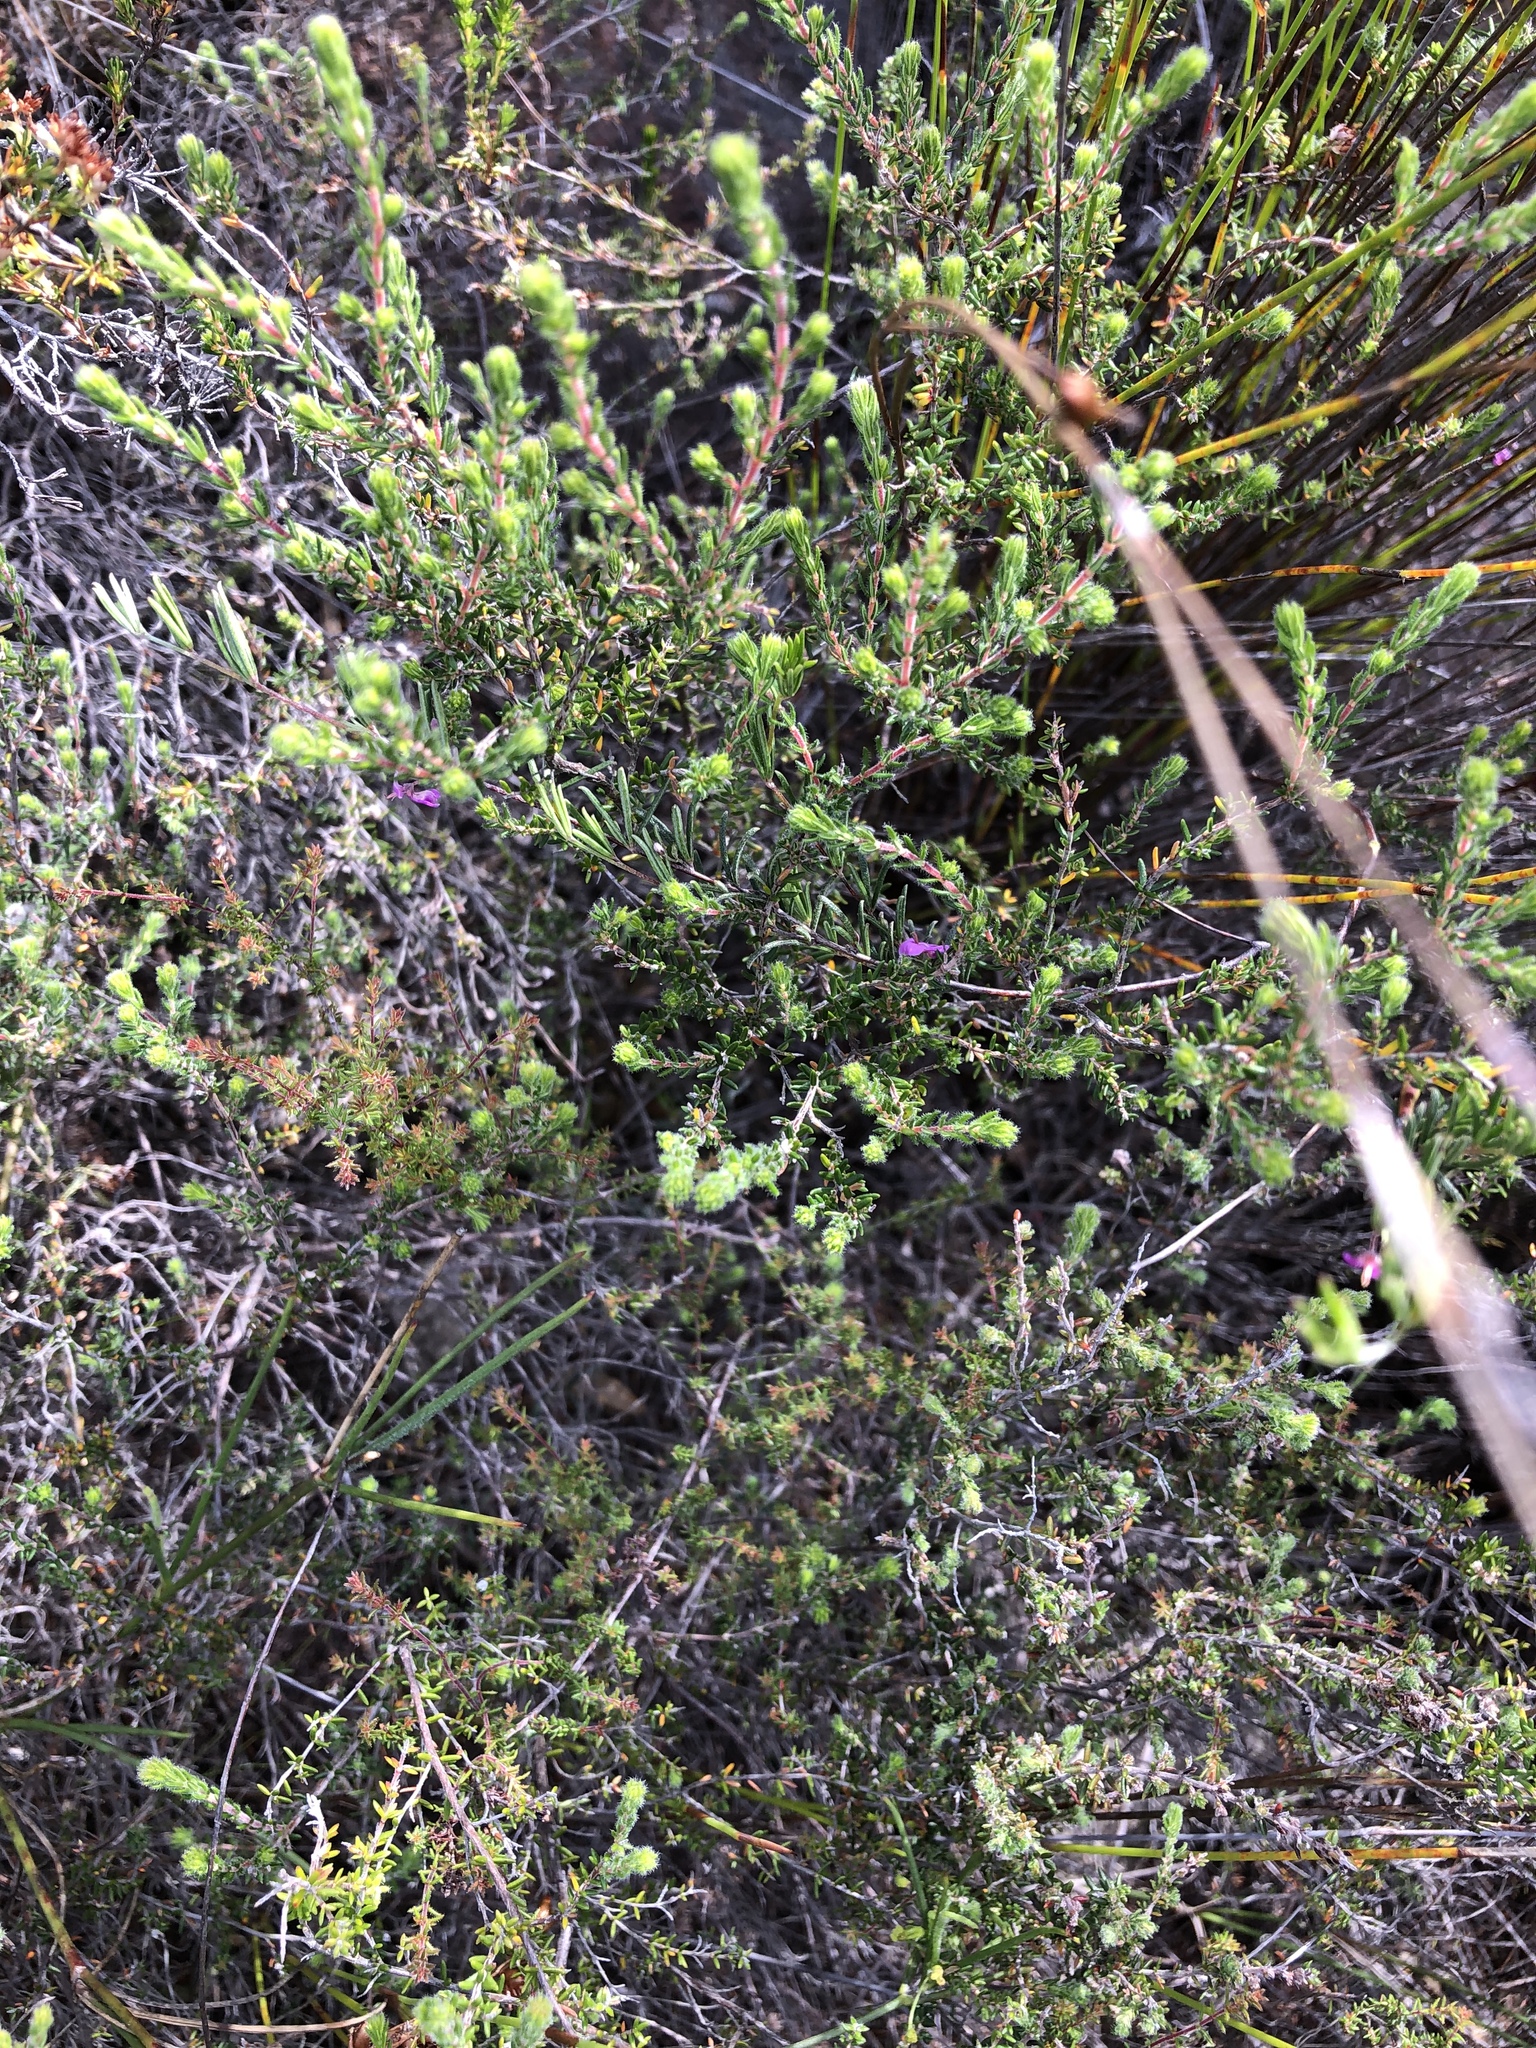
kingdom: Plantae
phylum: Tracheophyta
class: Magnoliopsida
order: Fabales
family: Fabaceae
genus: Indigofera
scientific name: Indigofera setosa
